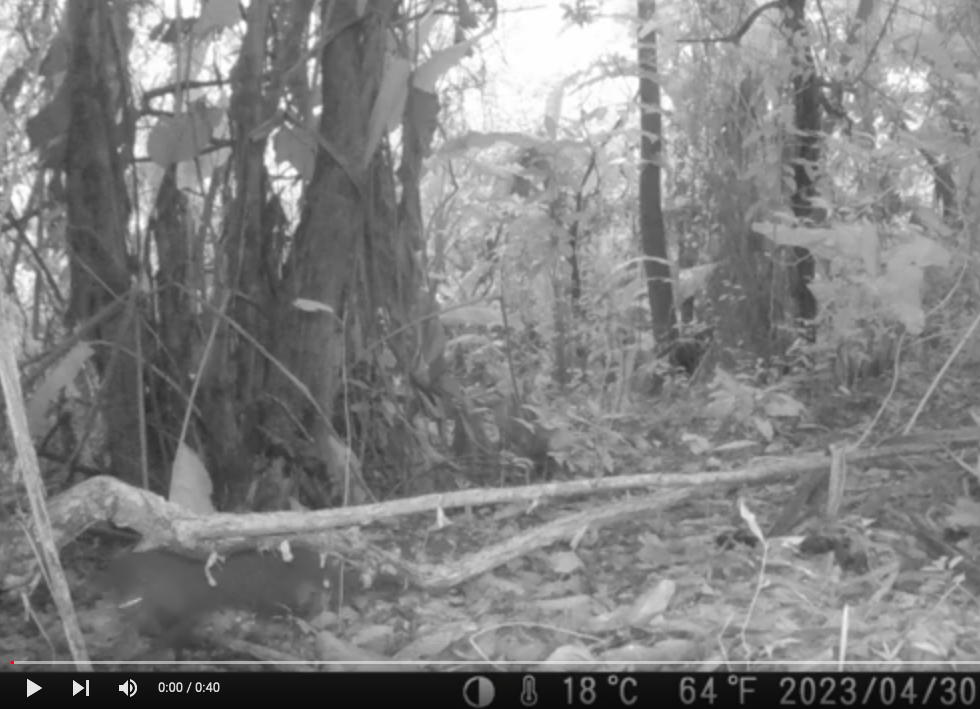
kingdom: Animalia
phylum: Chordata
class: Mammalia
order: Carnivora
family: Herpestidae
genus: Atilax
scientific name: Atilax paludinosus
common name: Marsh mongoose
